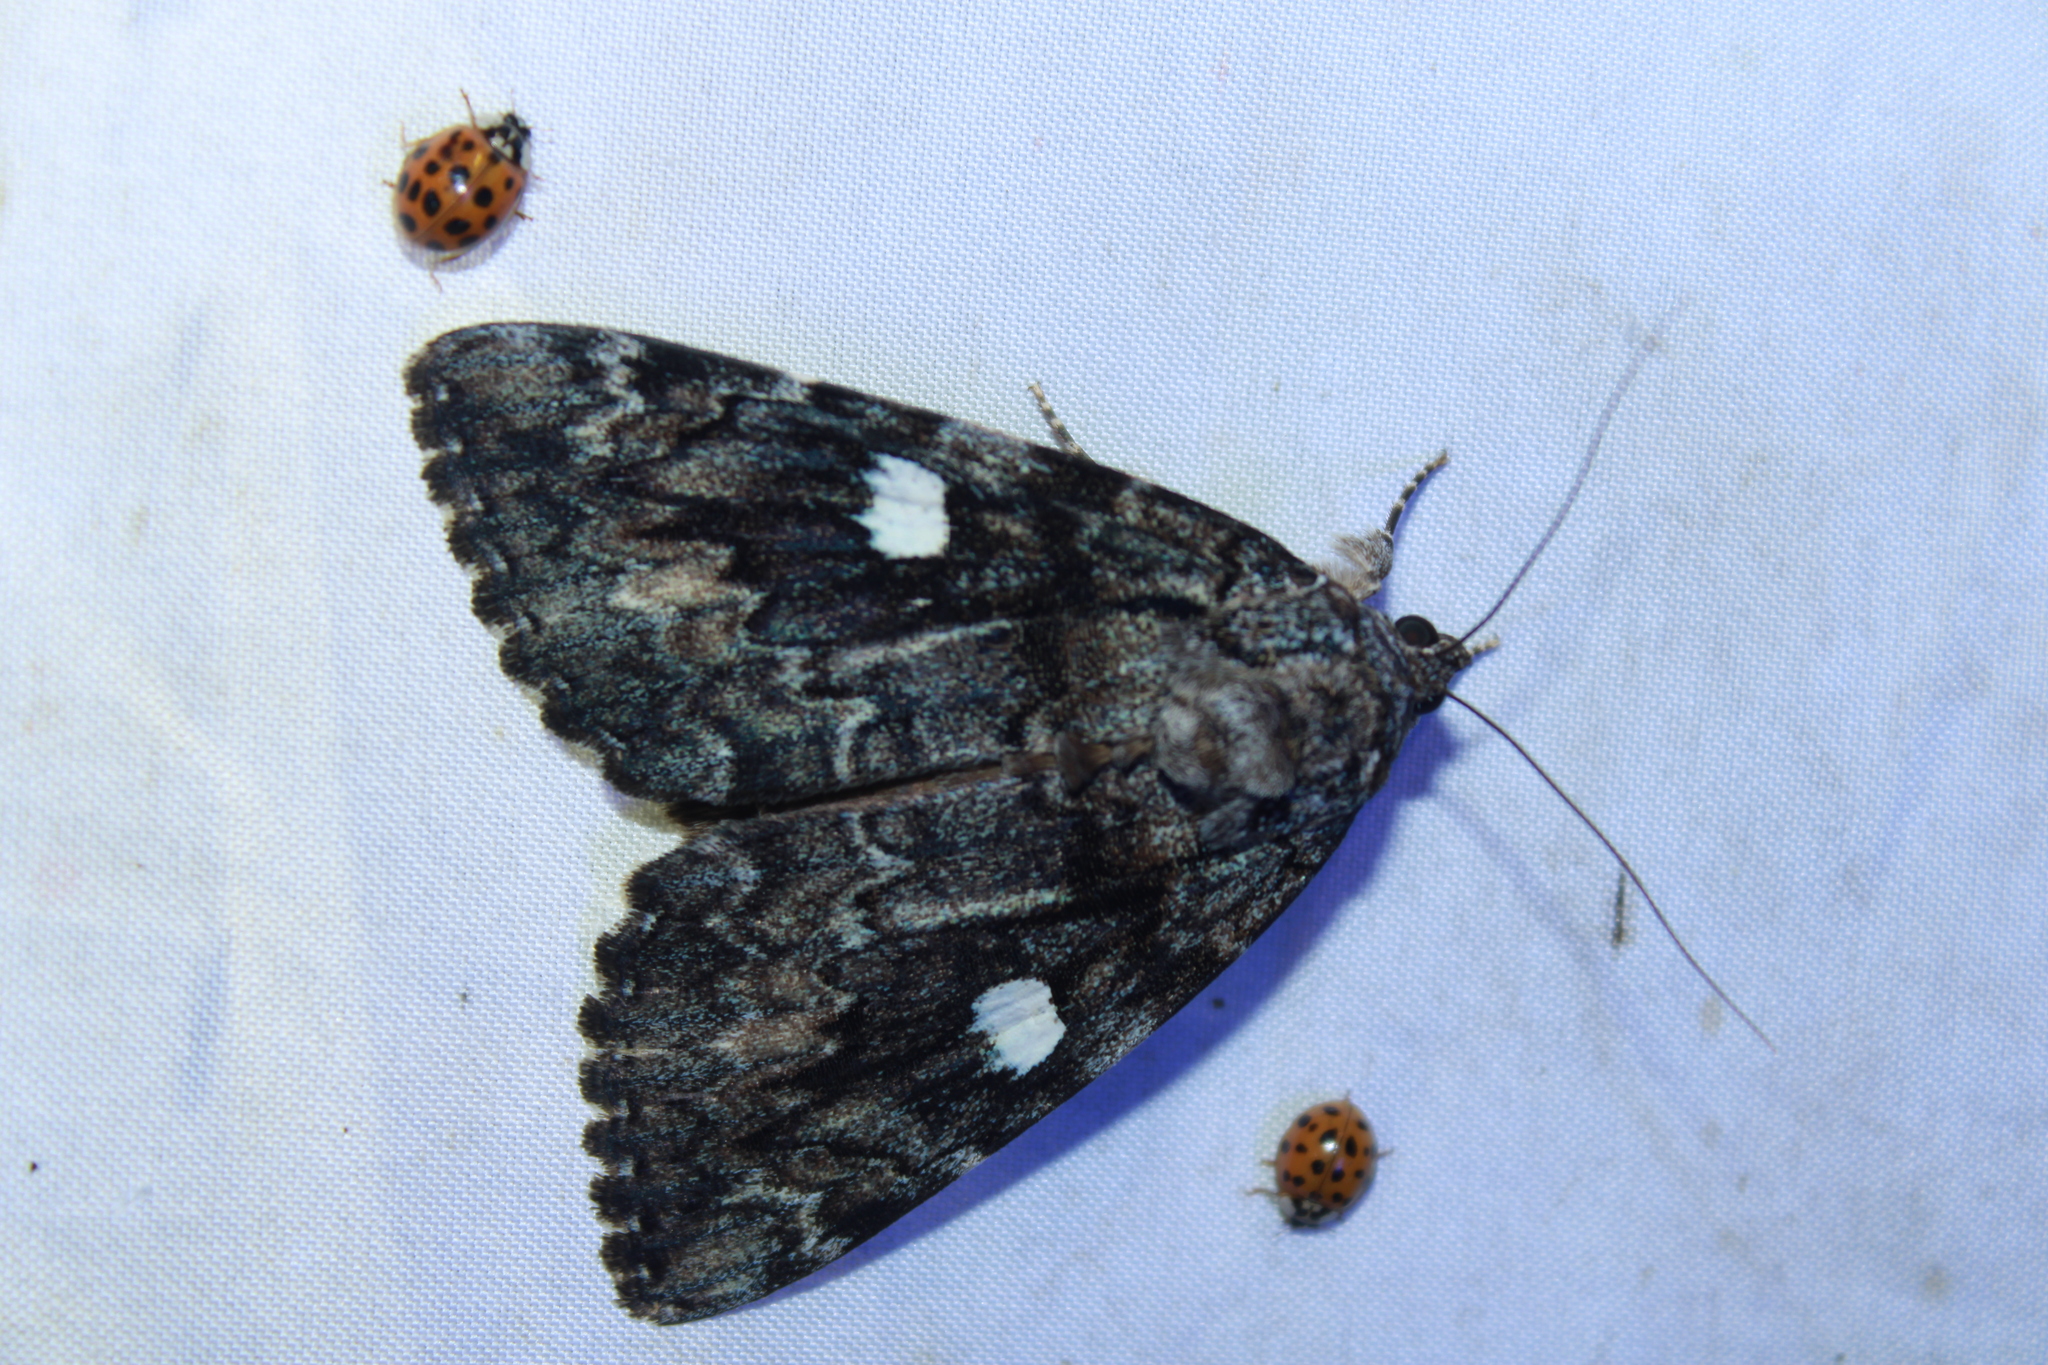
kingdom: Animalia
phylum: Arthropoda
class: Insecta
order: Lepidoptera
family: Erebidae
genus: Catocala
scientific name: Catocala ilia
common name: Ilia underwing
